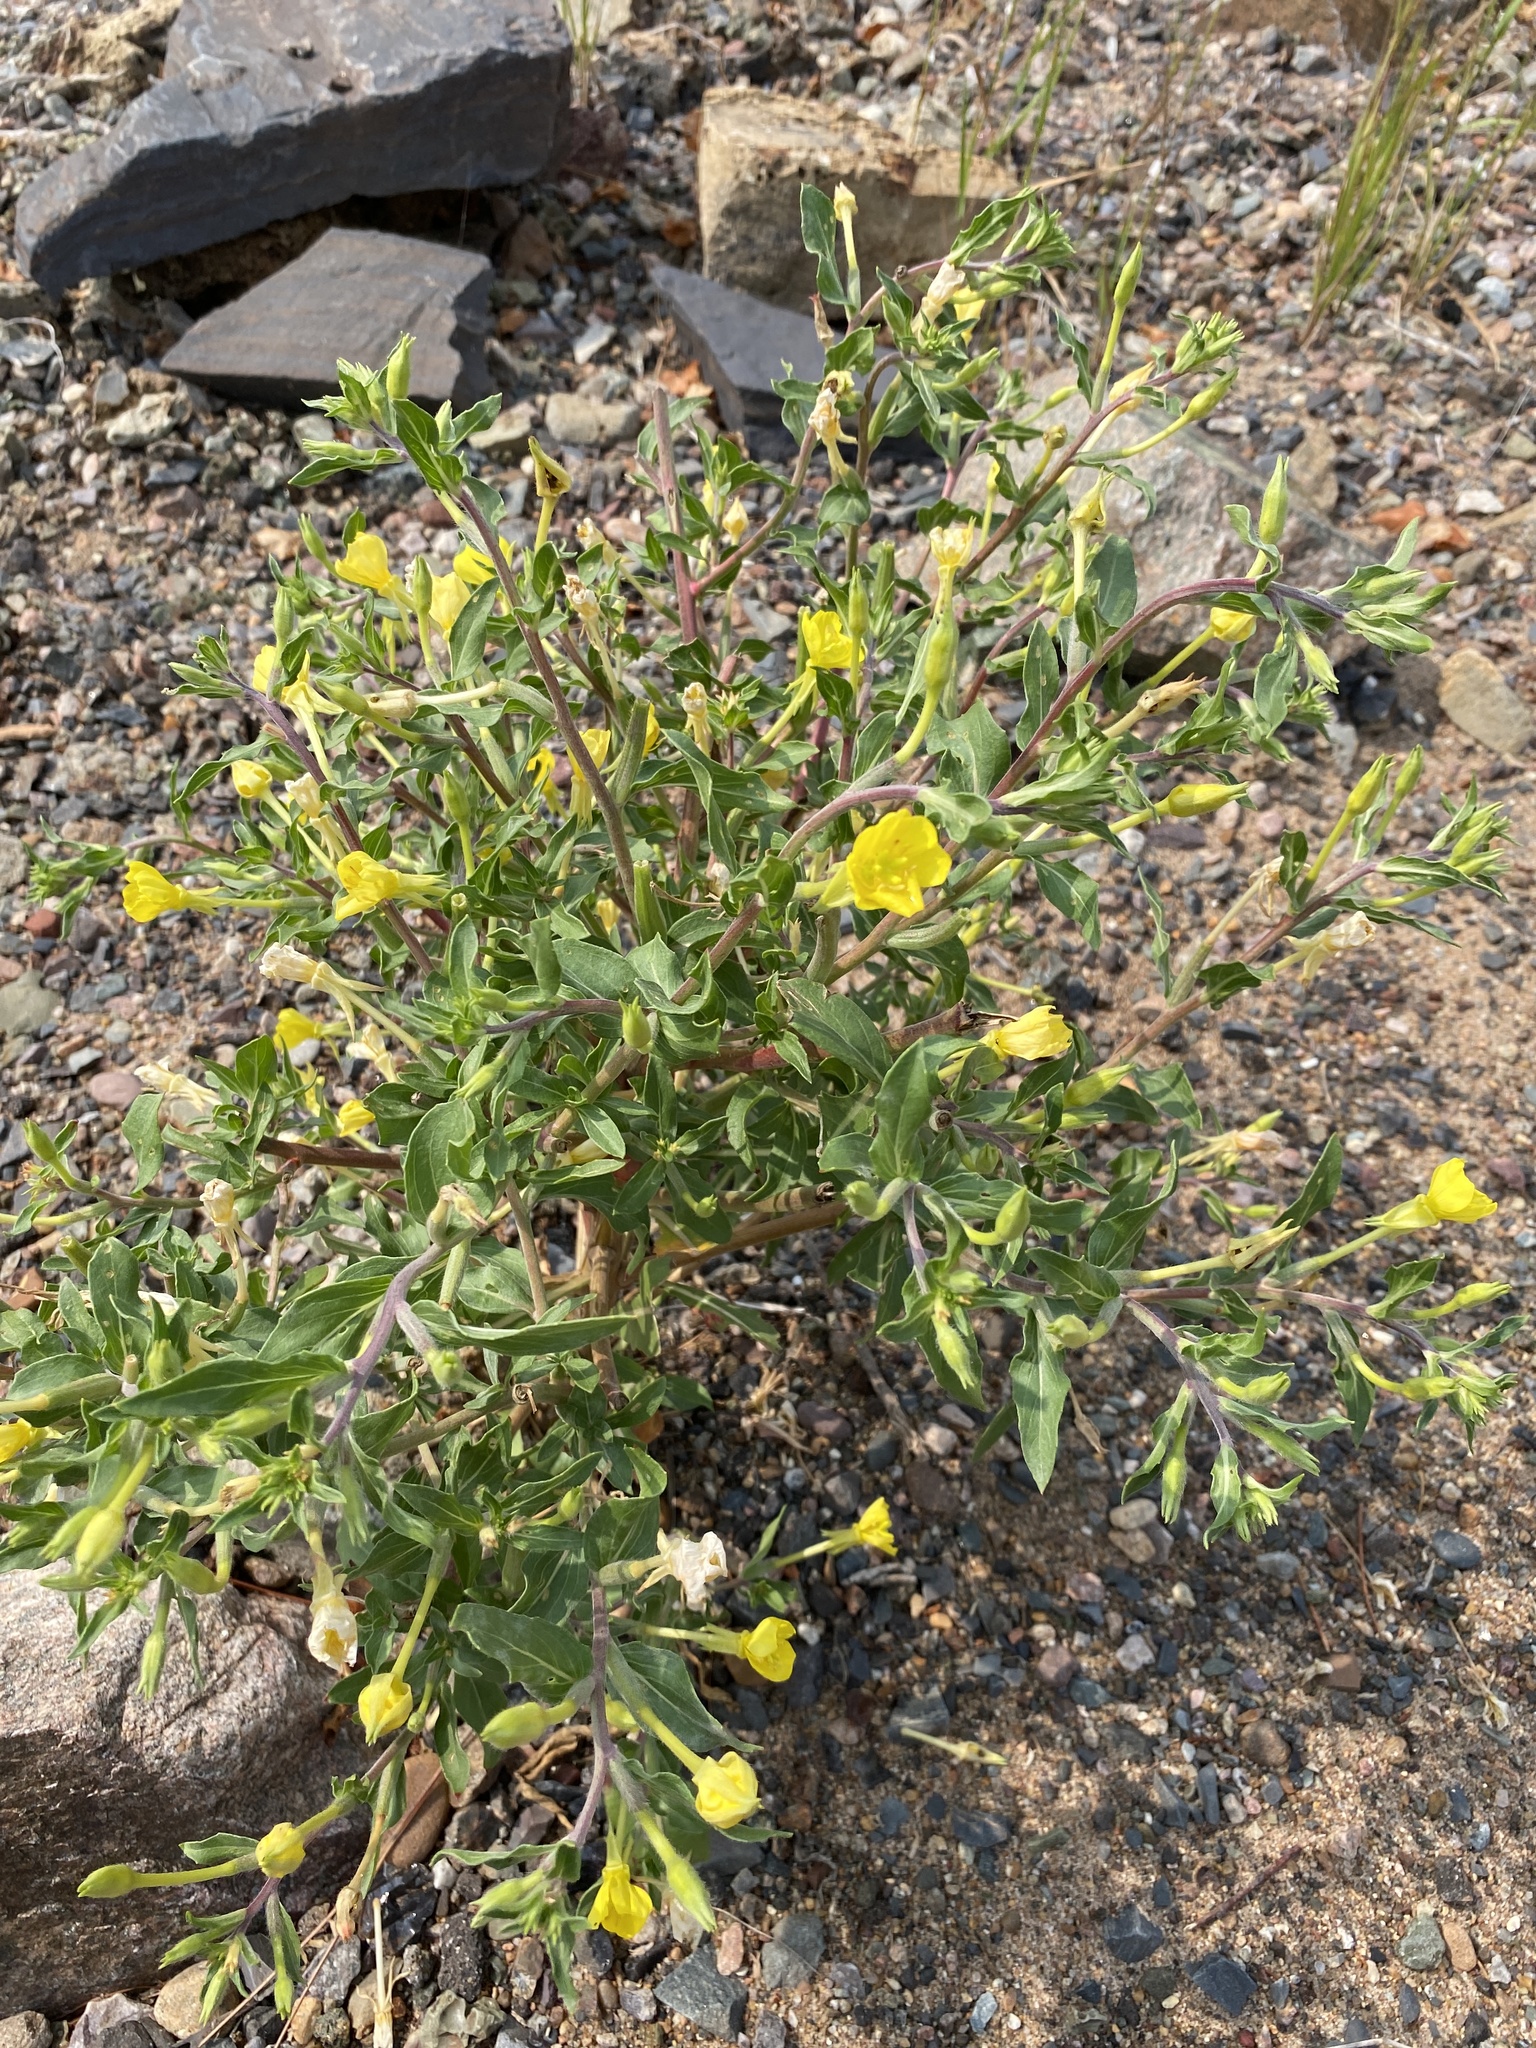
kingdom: Plantae
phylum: Tracheophyta
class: Magnoliopsida
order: Myrtales
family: Onagraceae
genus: Oenothera
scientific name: Oenothera oakesiana
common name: Oakes' evening-primrose
